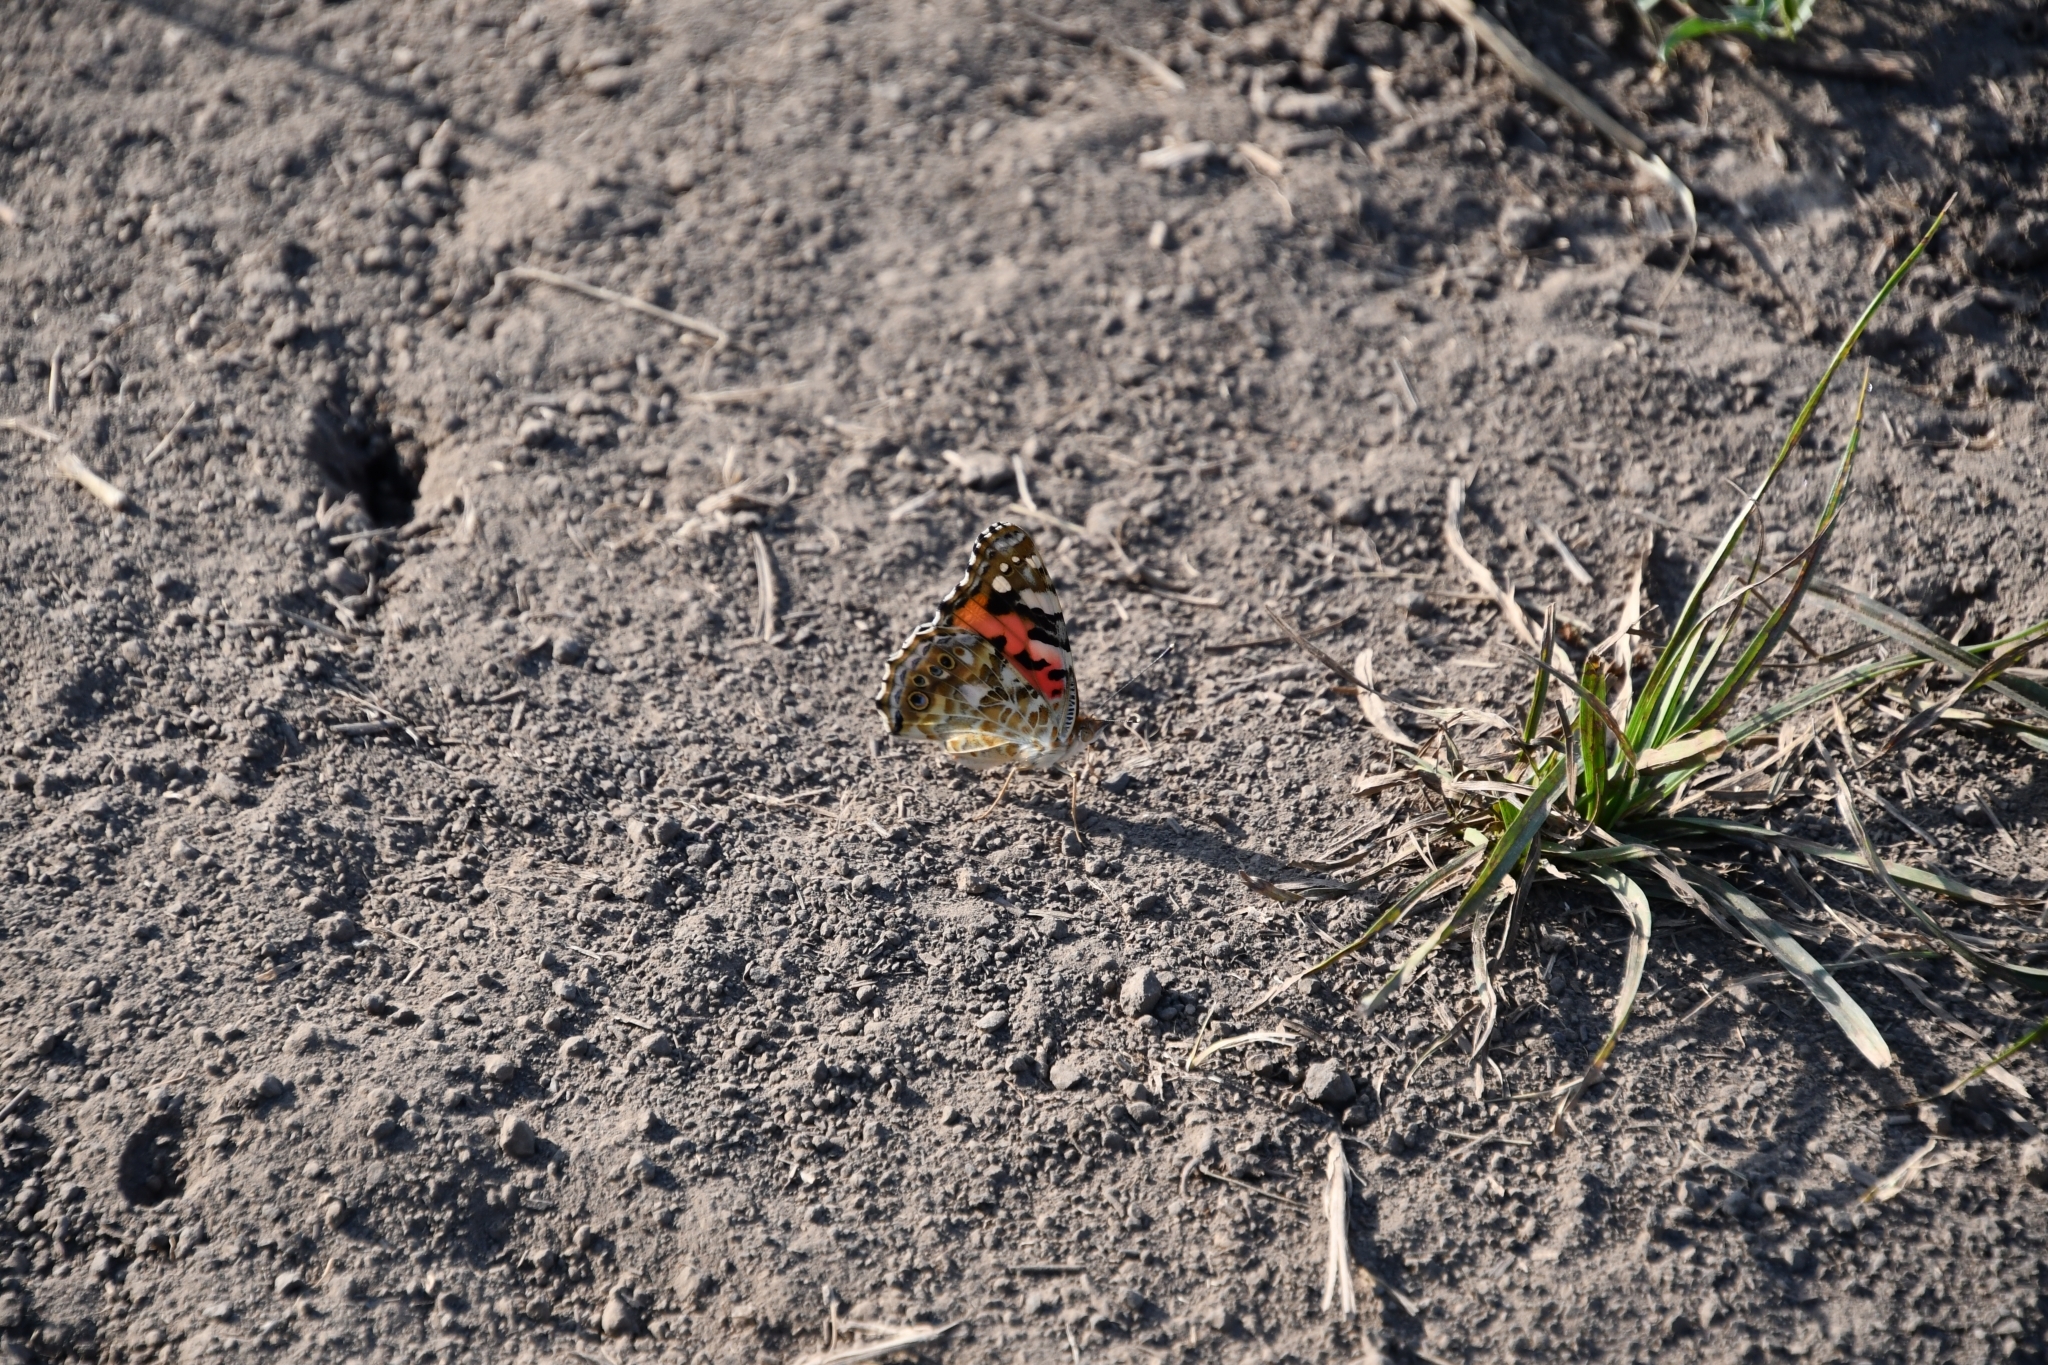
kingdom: Animalia
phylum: Arthropoda
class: Insecta
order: Lepidoptera
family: Nymphalidae
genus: Vanessa
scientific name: Vanessa cardui
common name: Painted lady
